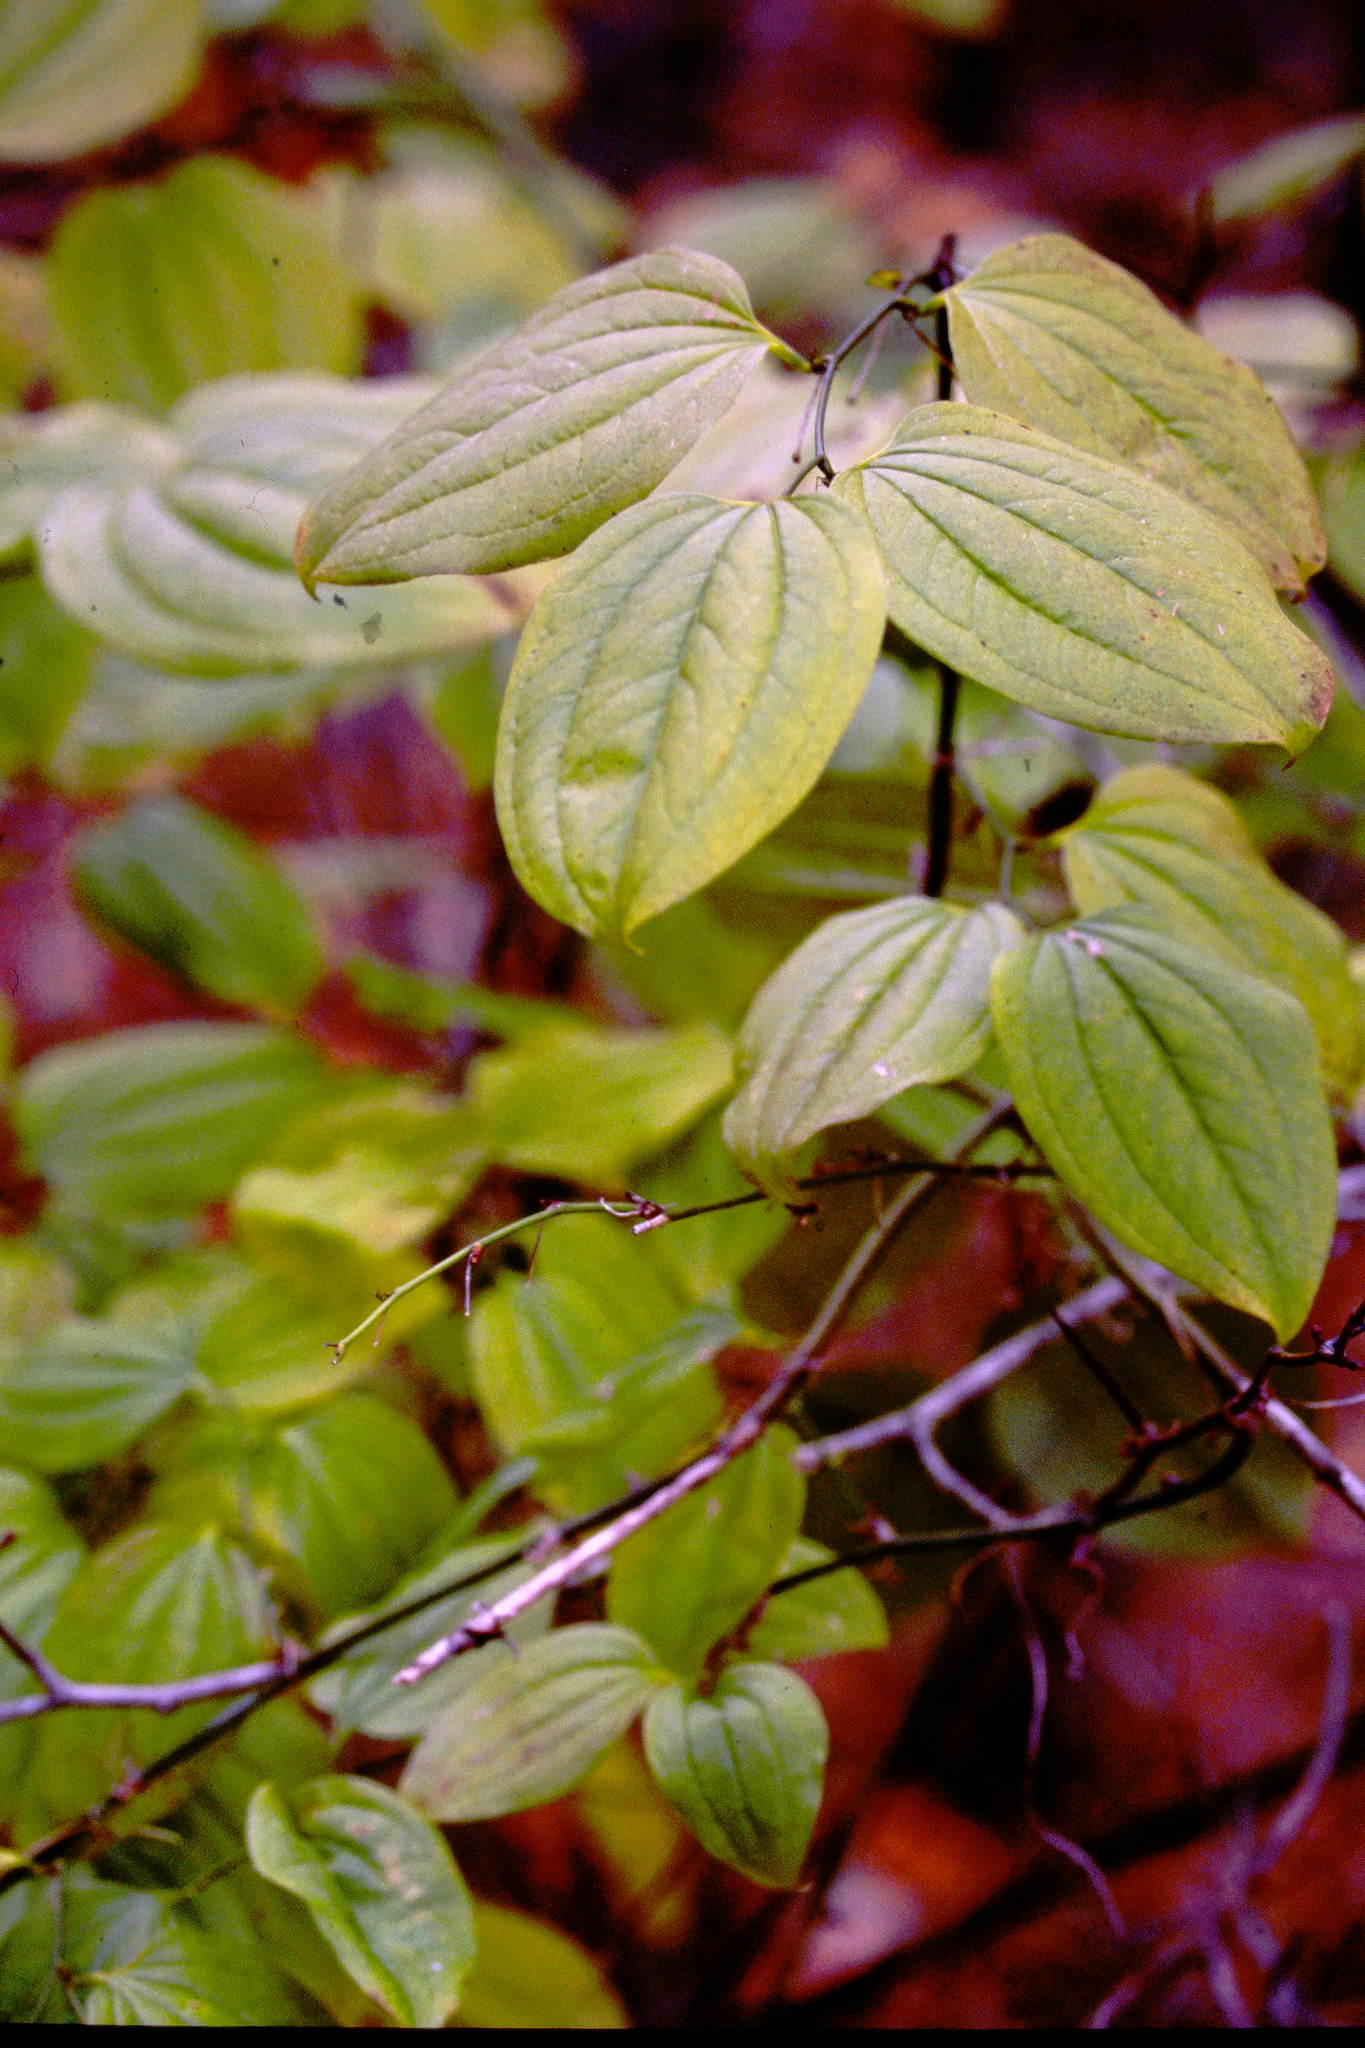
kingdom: Plantae
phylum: Tracheophyta
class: Liliopsida
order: Liliales
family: Smilacaceae
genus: Smilax
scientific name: Smilax tamnoides
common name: Hellfetter
